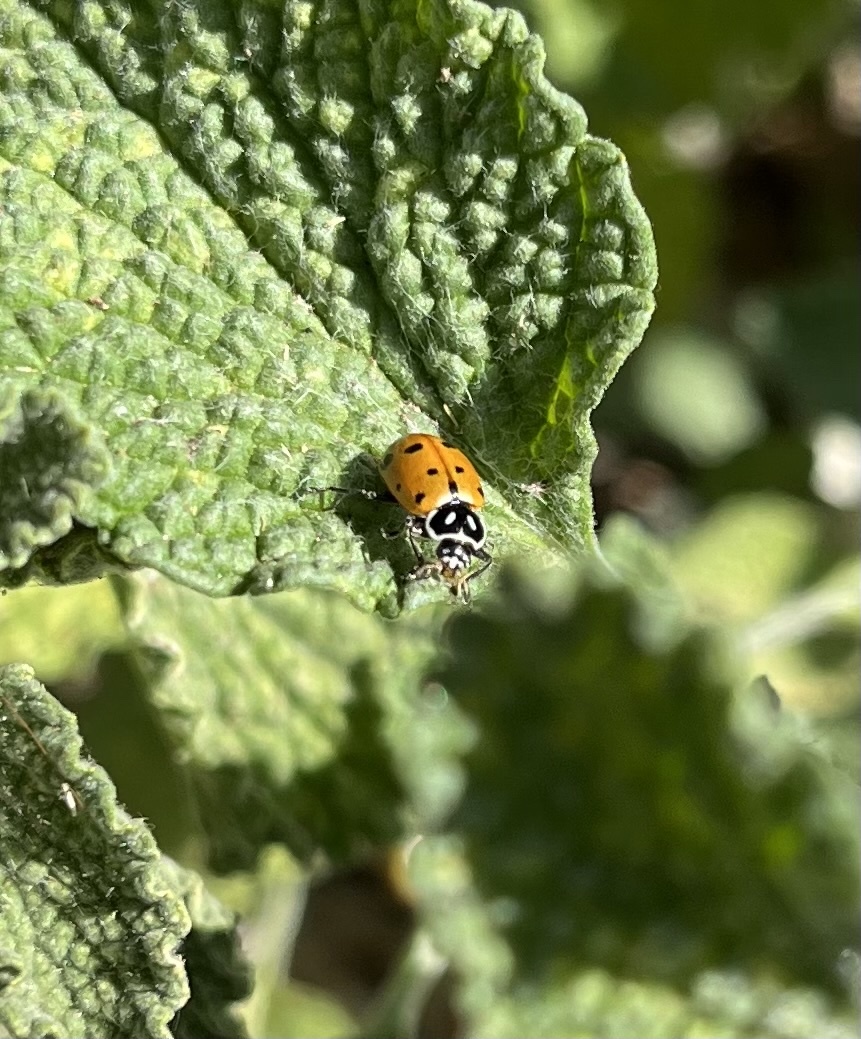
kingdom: Animalia
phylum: Arthropoda
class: Insecta
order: Coleoptera
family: Coccinellidae
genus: Hippodamia
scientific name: Hippodamia convergens
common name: Convergent lady beetle
